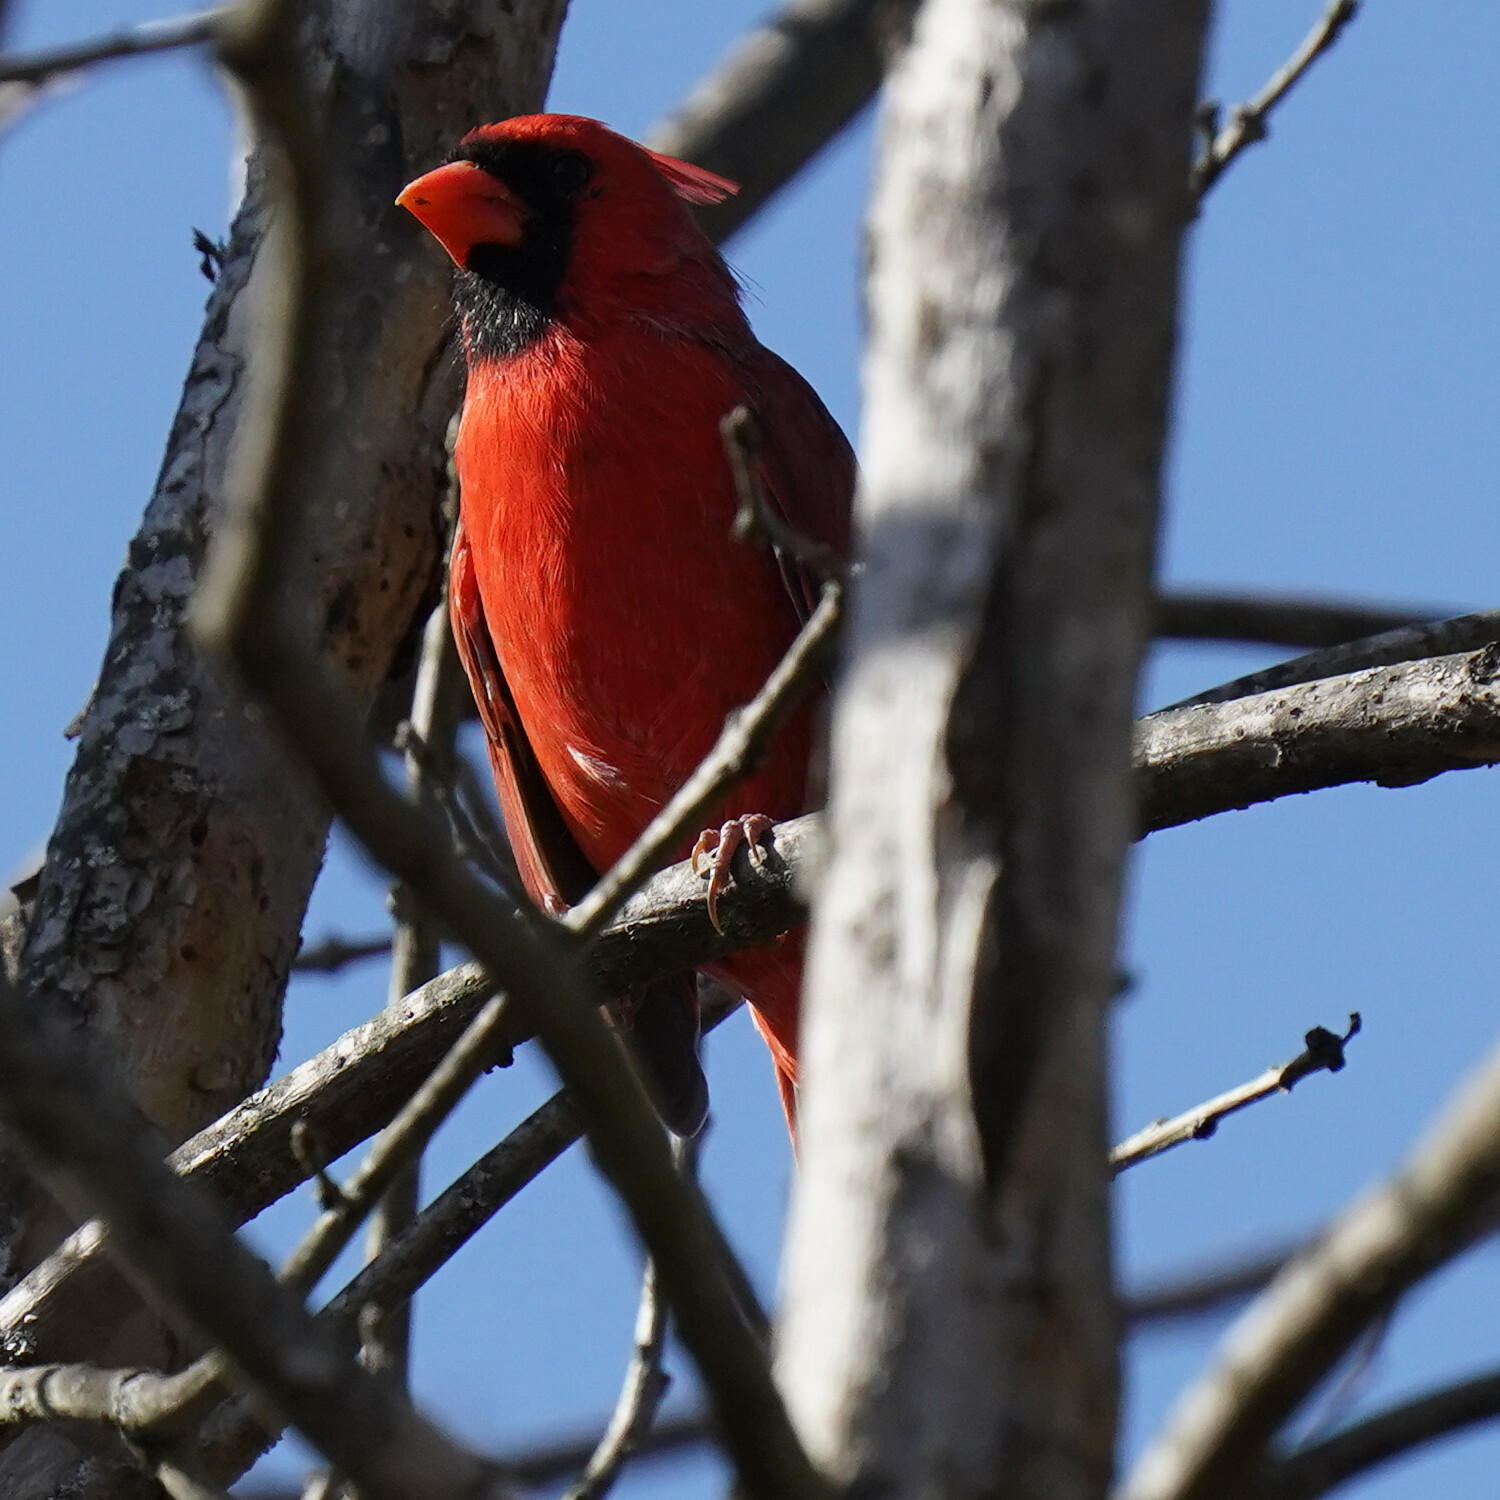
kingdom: Animalia
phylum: Chordata
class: Aves
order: Passeriformes
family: Cardinalidae
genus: Cardinalis
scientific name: Cardinalis cardinalis
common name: Northern cardinal
